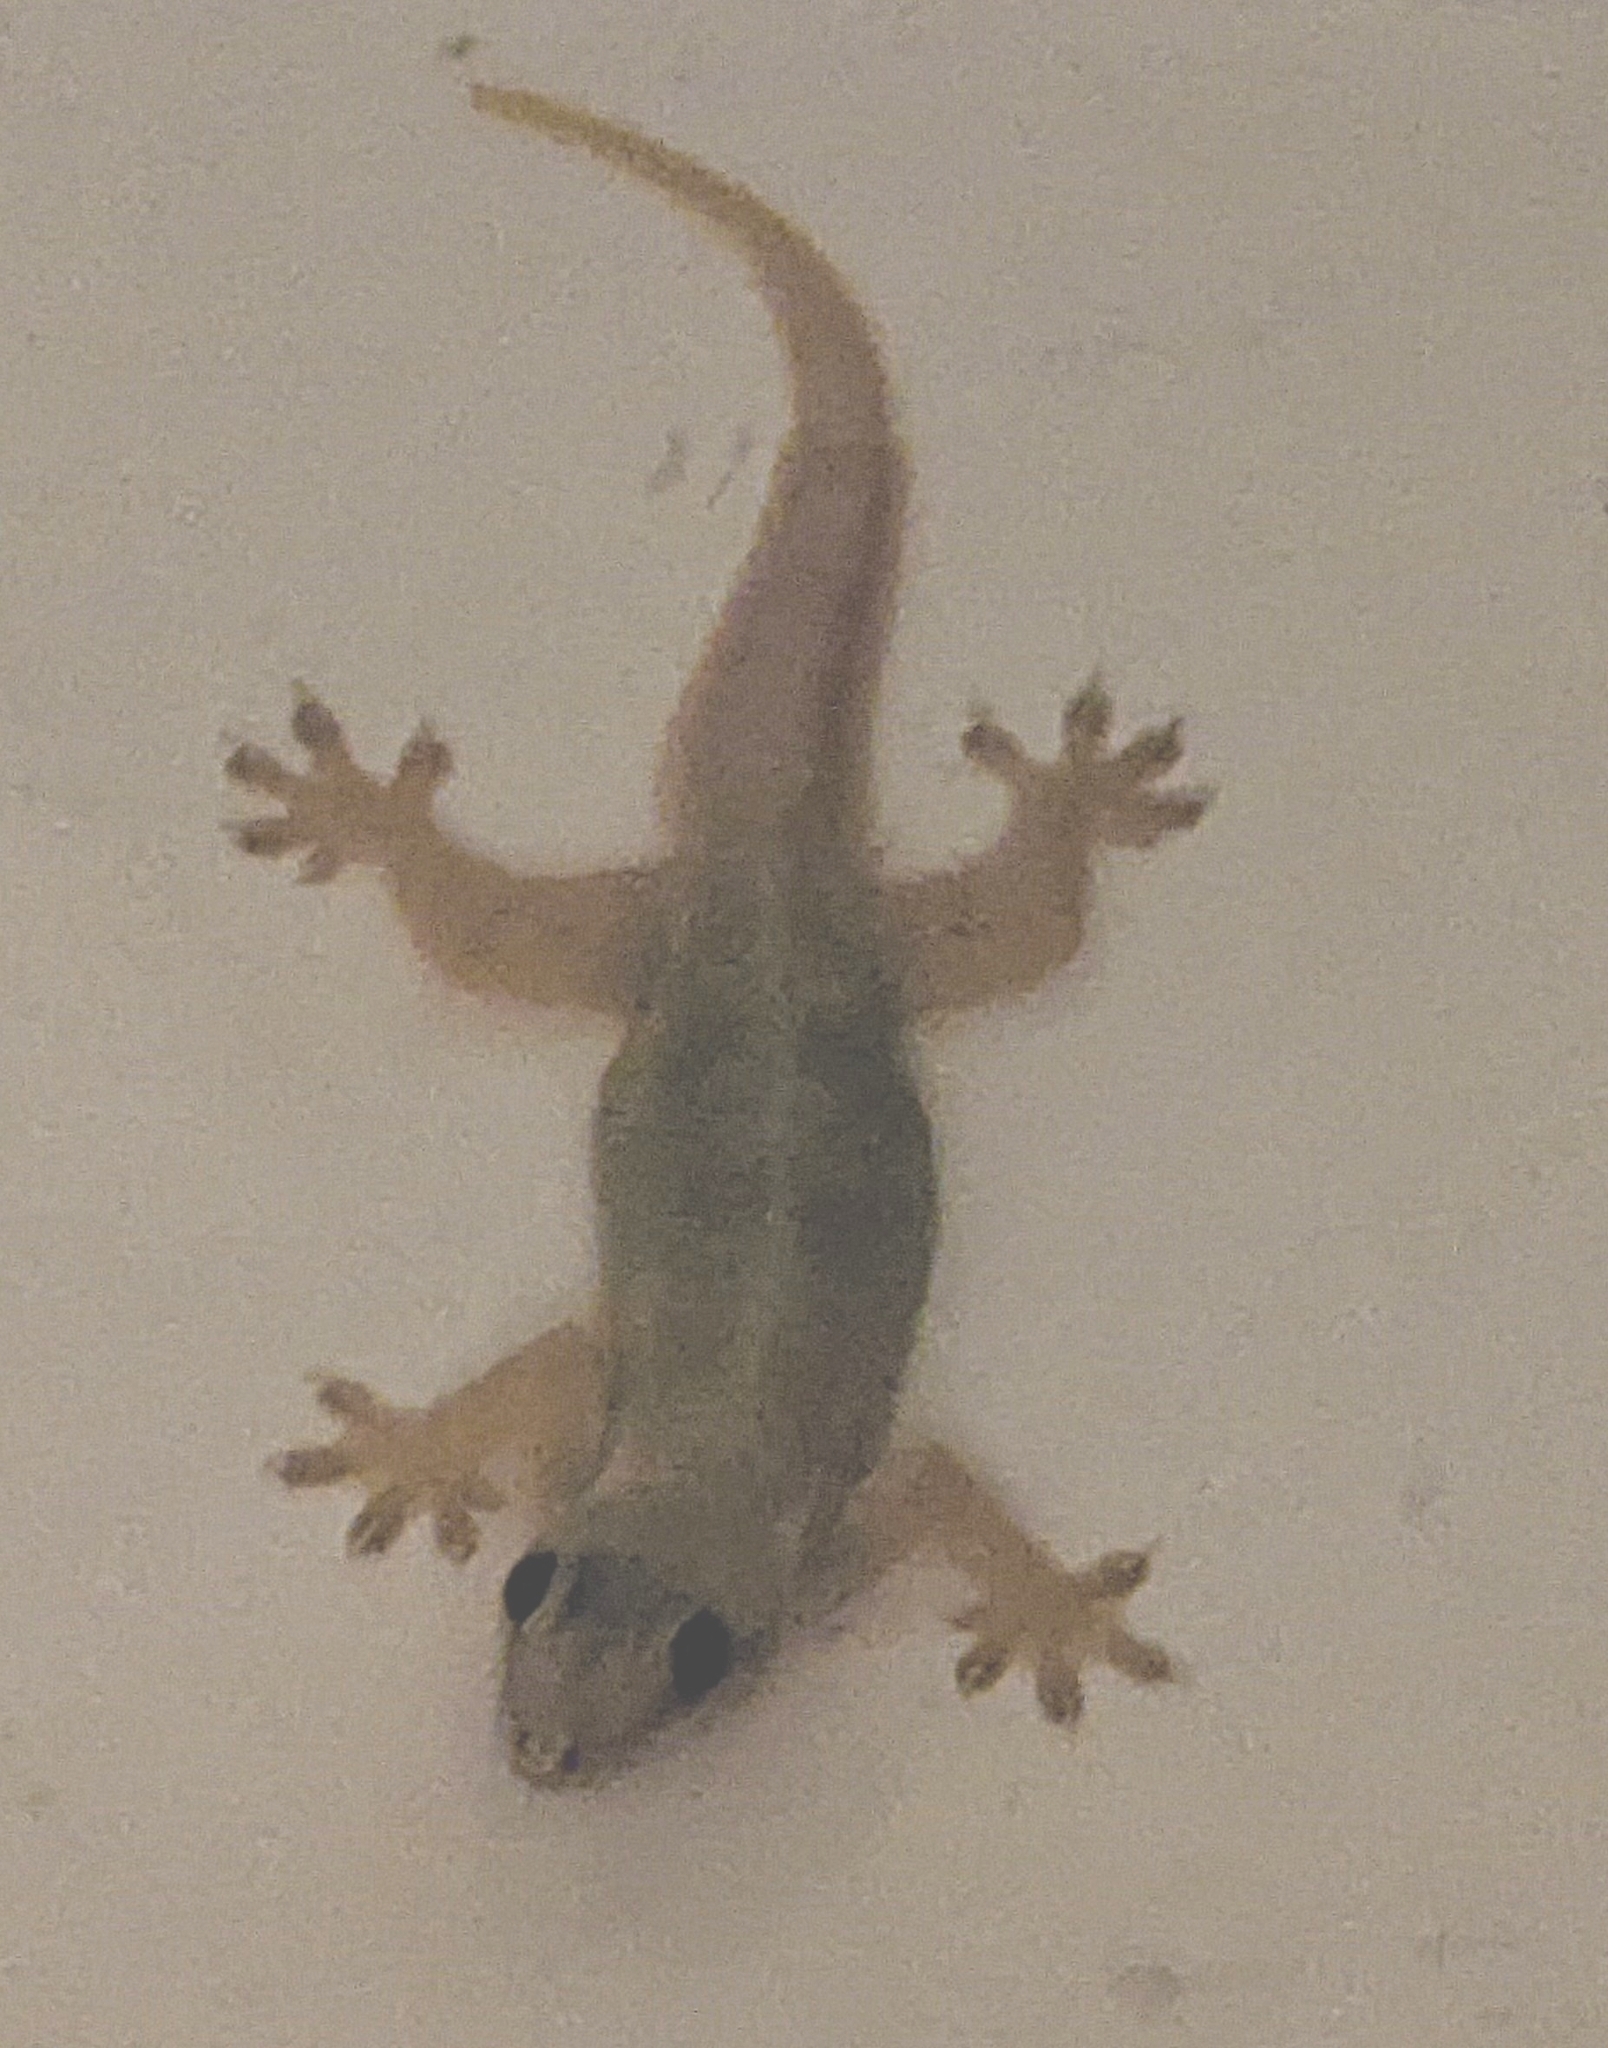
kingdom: Animalia
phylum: Chordata
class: Squamata
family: Gekkonidae
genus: Hemidactylus
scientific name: Hemidactylus platyurus
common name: Flat-tailed house gecko
